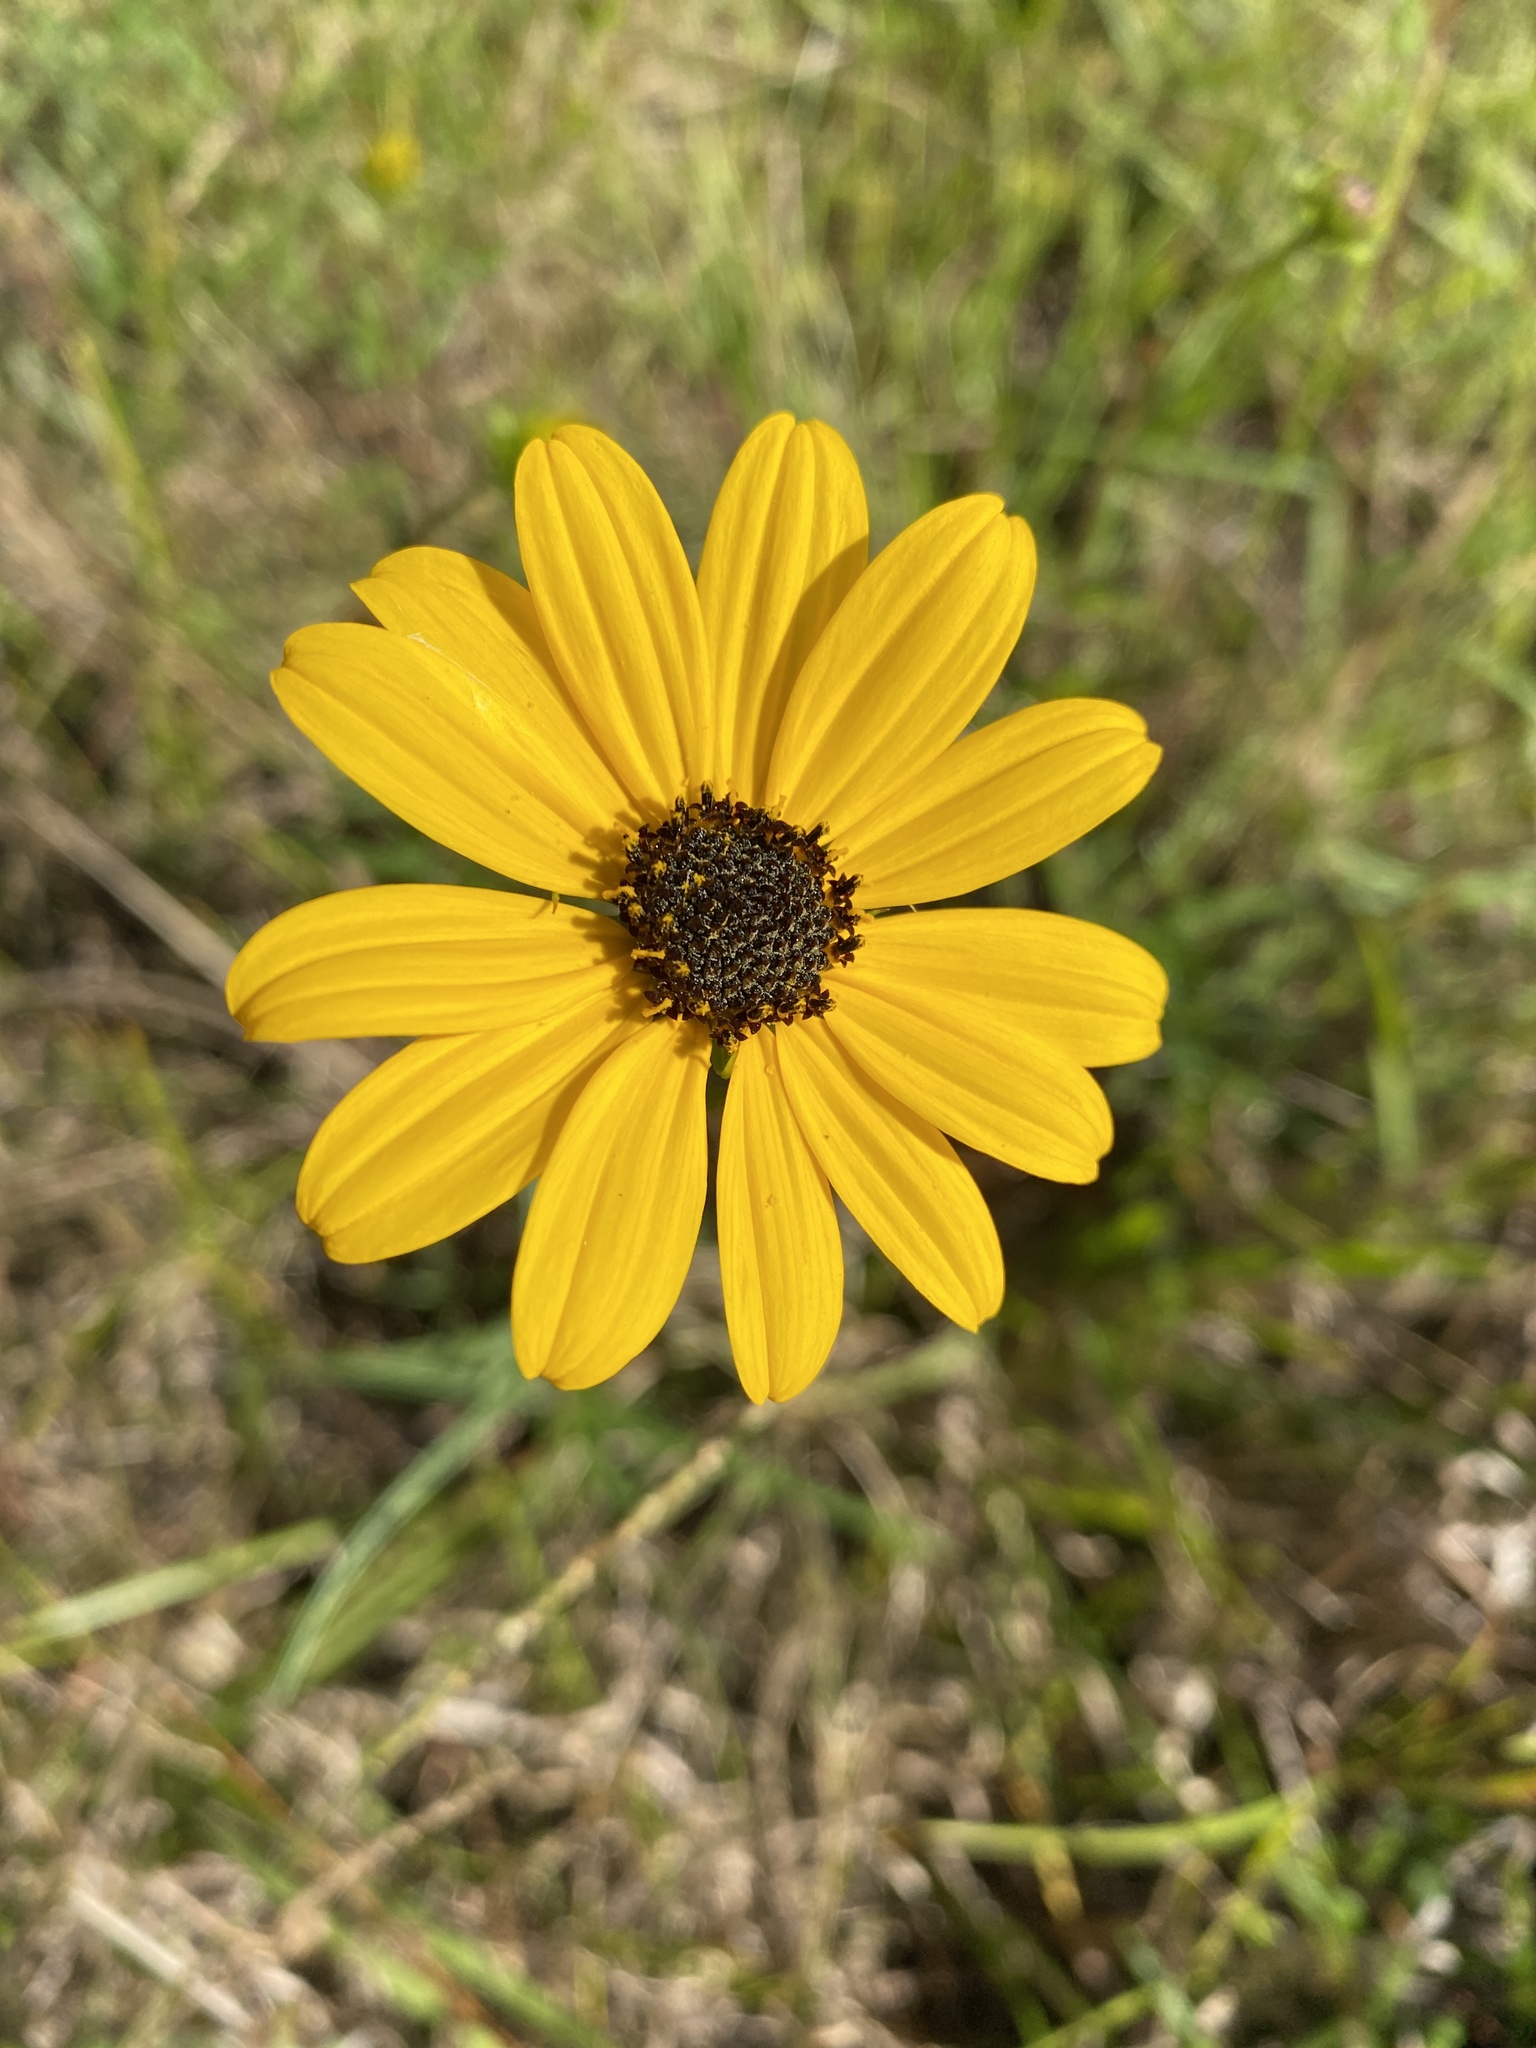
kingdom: Plantae
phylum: Tracheophyta
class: Magnoliopsida
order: Asterales
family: Asteraceae
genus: Helianthus
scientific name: Helianthus angustifolius
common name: Swamp sunflower
